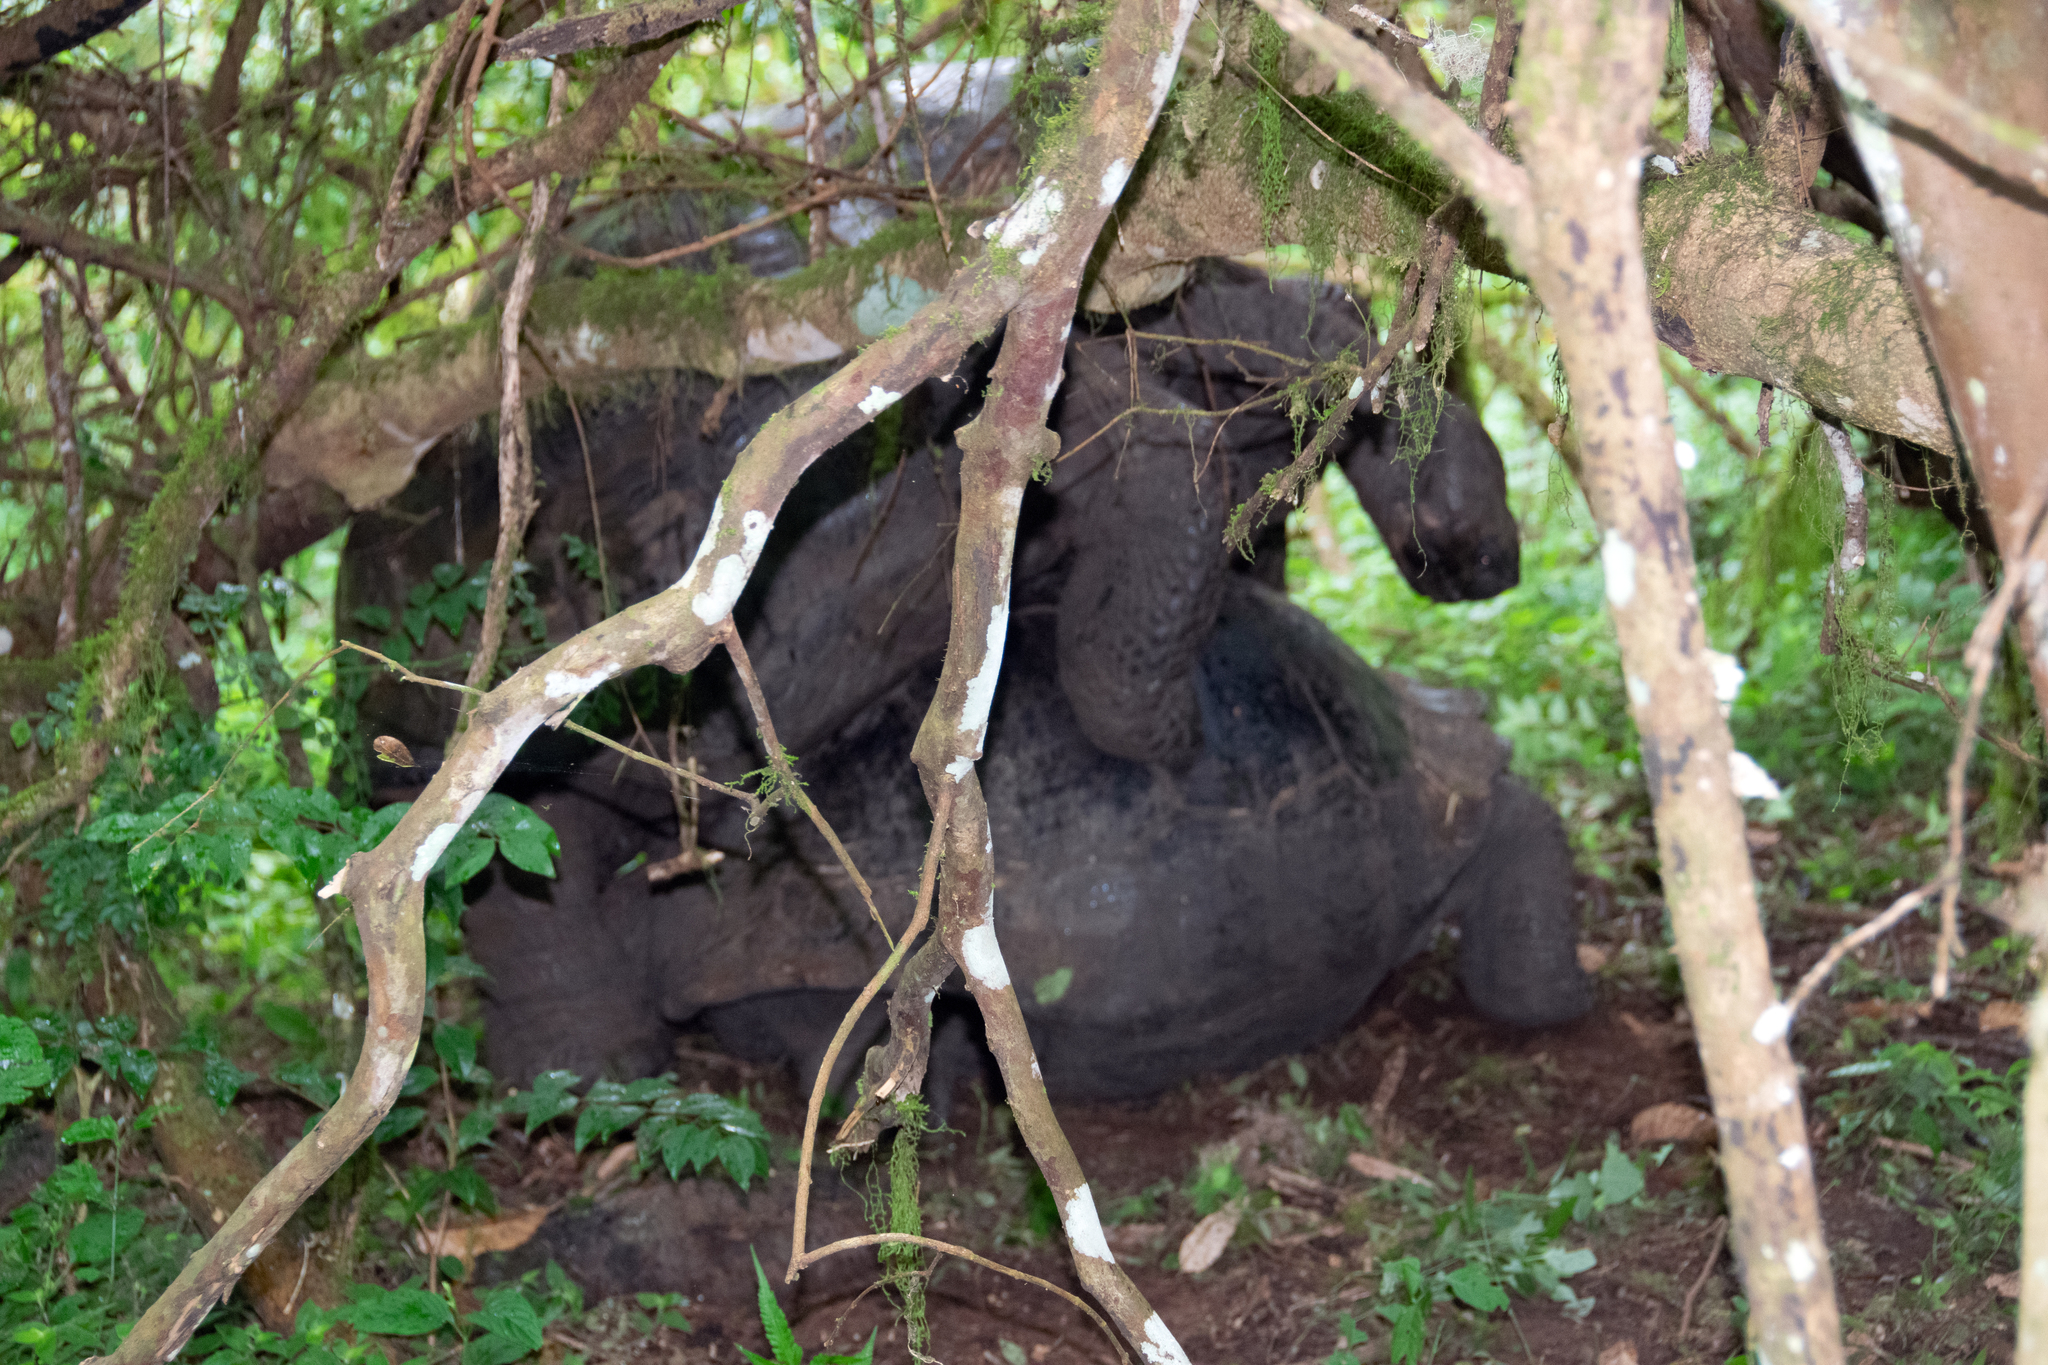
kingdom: Animalia
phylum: Chordata
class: Testudines
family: Testudinidae
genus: Chelonoidis
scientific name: Chelonoidis porteri
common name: Indefatigable island giant tortoise
